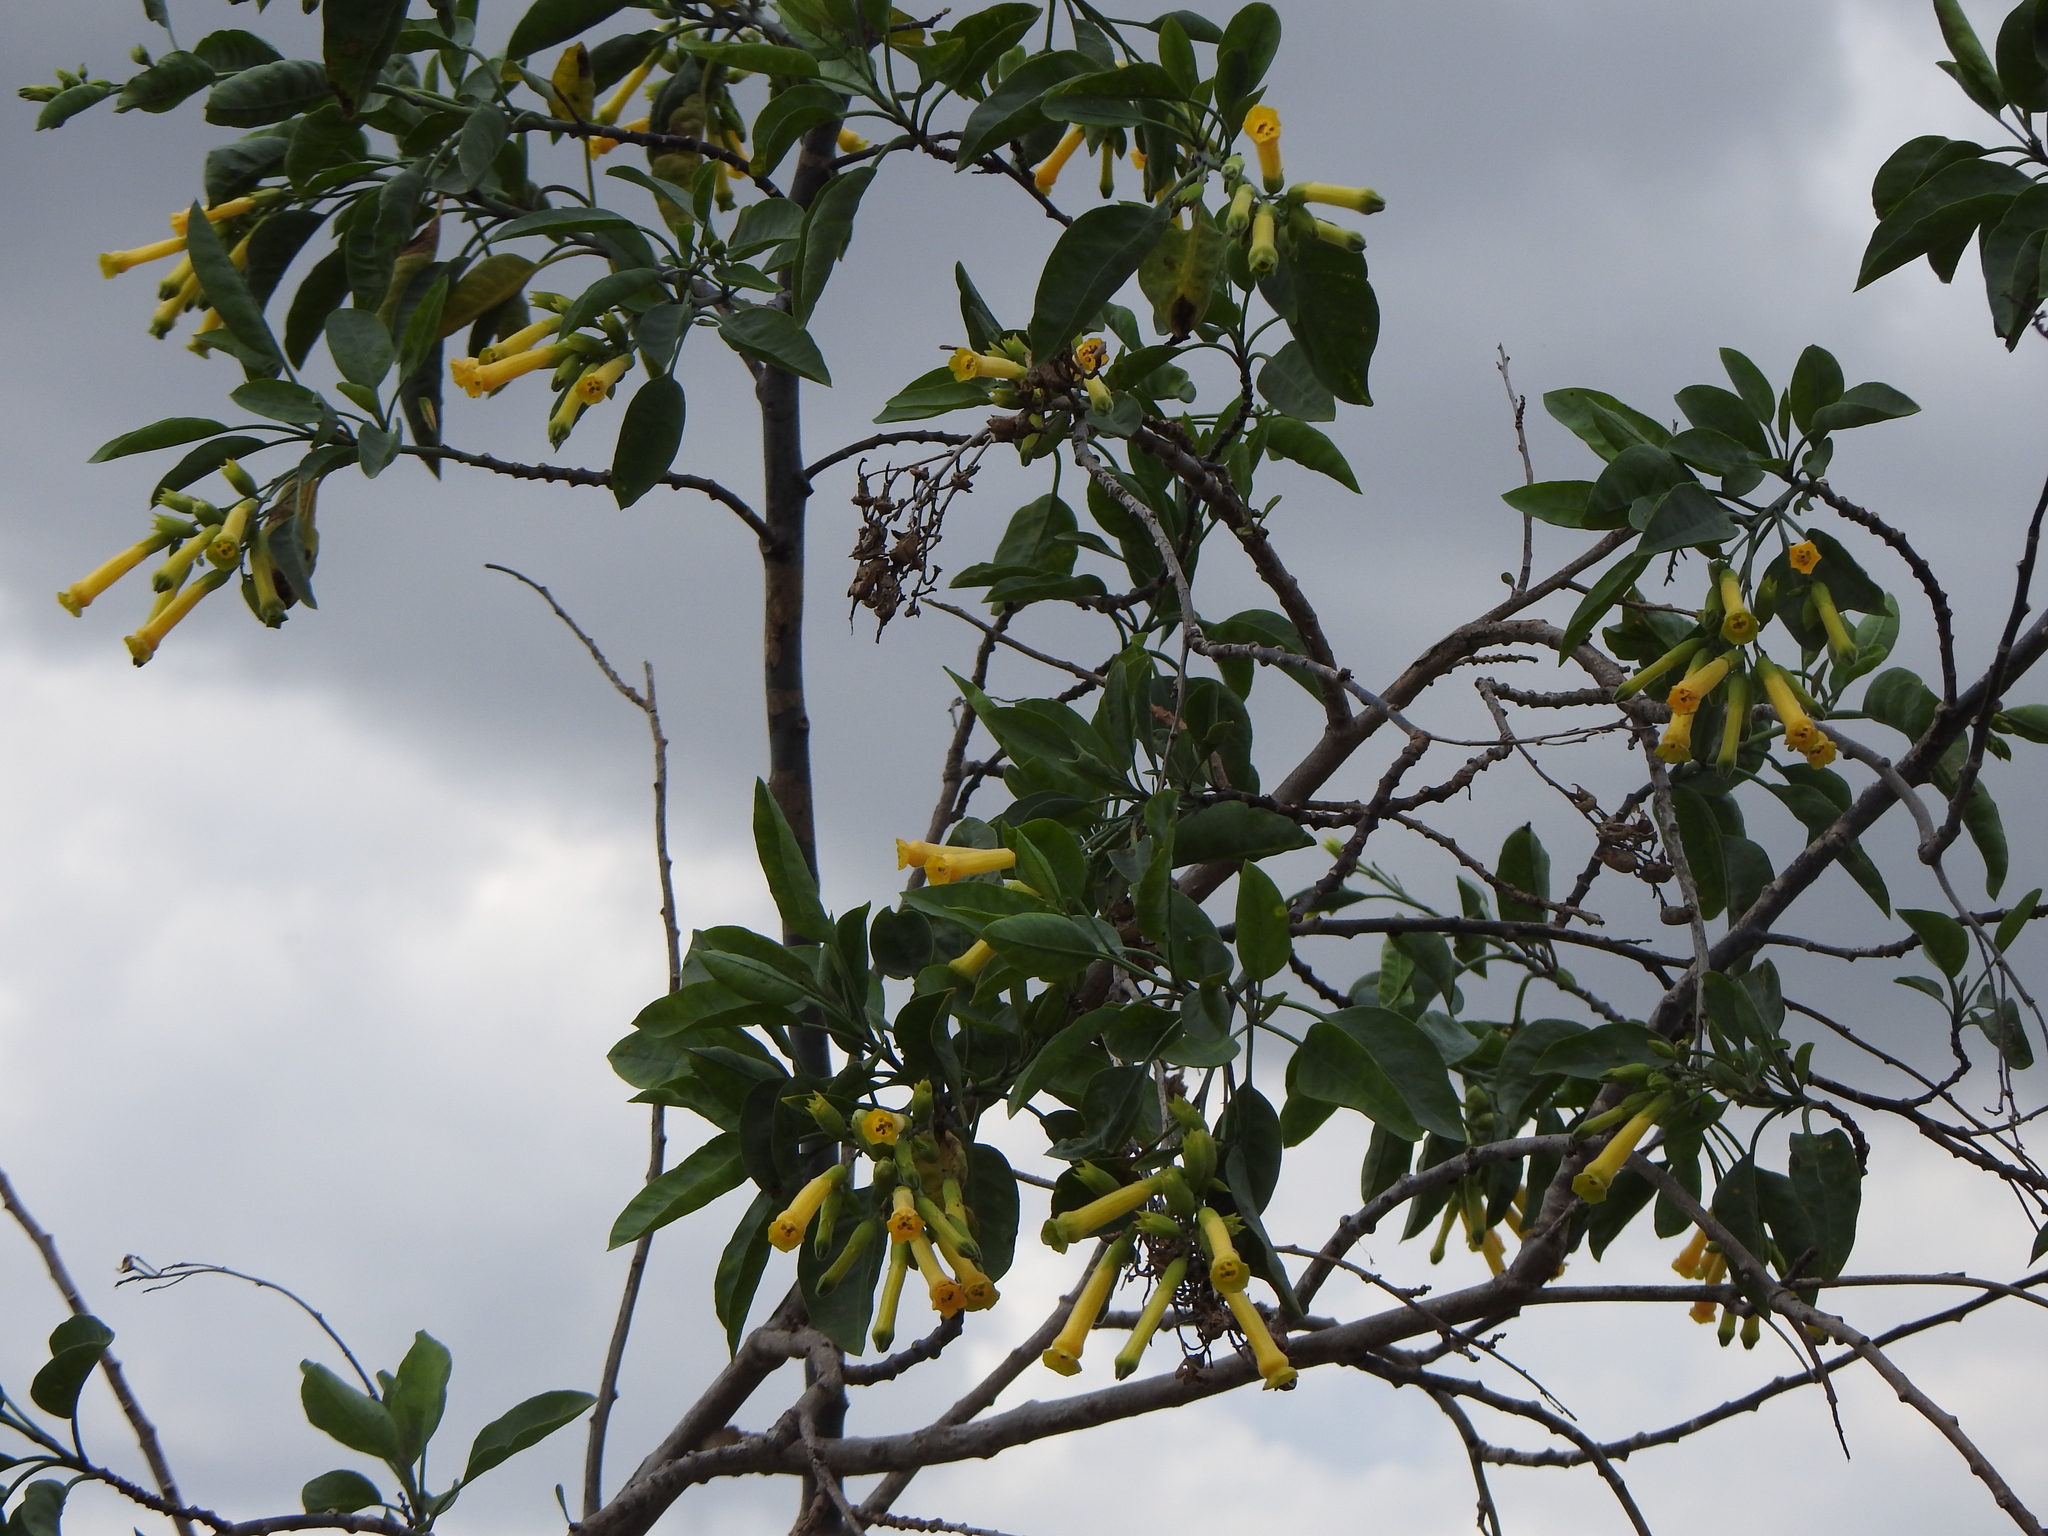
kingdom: Plantae
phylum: Tracheophyta
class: Magnoliopsida
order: Solanales
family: Solanaceae
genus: Nicotiana
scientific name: Nicotiana glauca
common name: Tree tobacco
